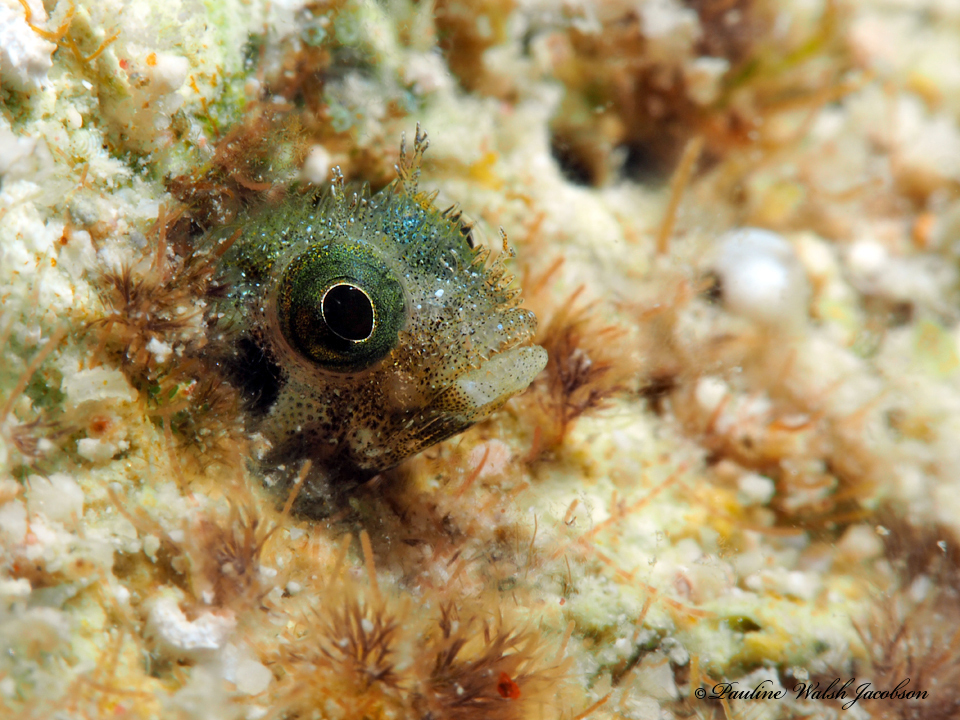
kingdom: Animalia
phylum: Chordata
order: Perciformes
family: Chaenopsidae
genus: Acanthemblemaria
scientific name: Acanthemblemaria spinosa
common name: Spinyhead blenny
